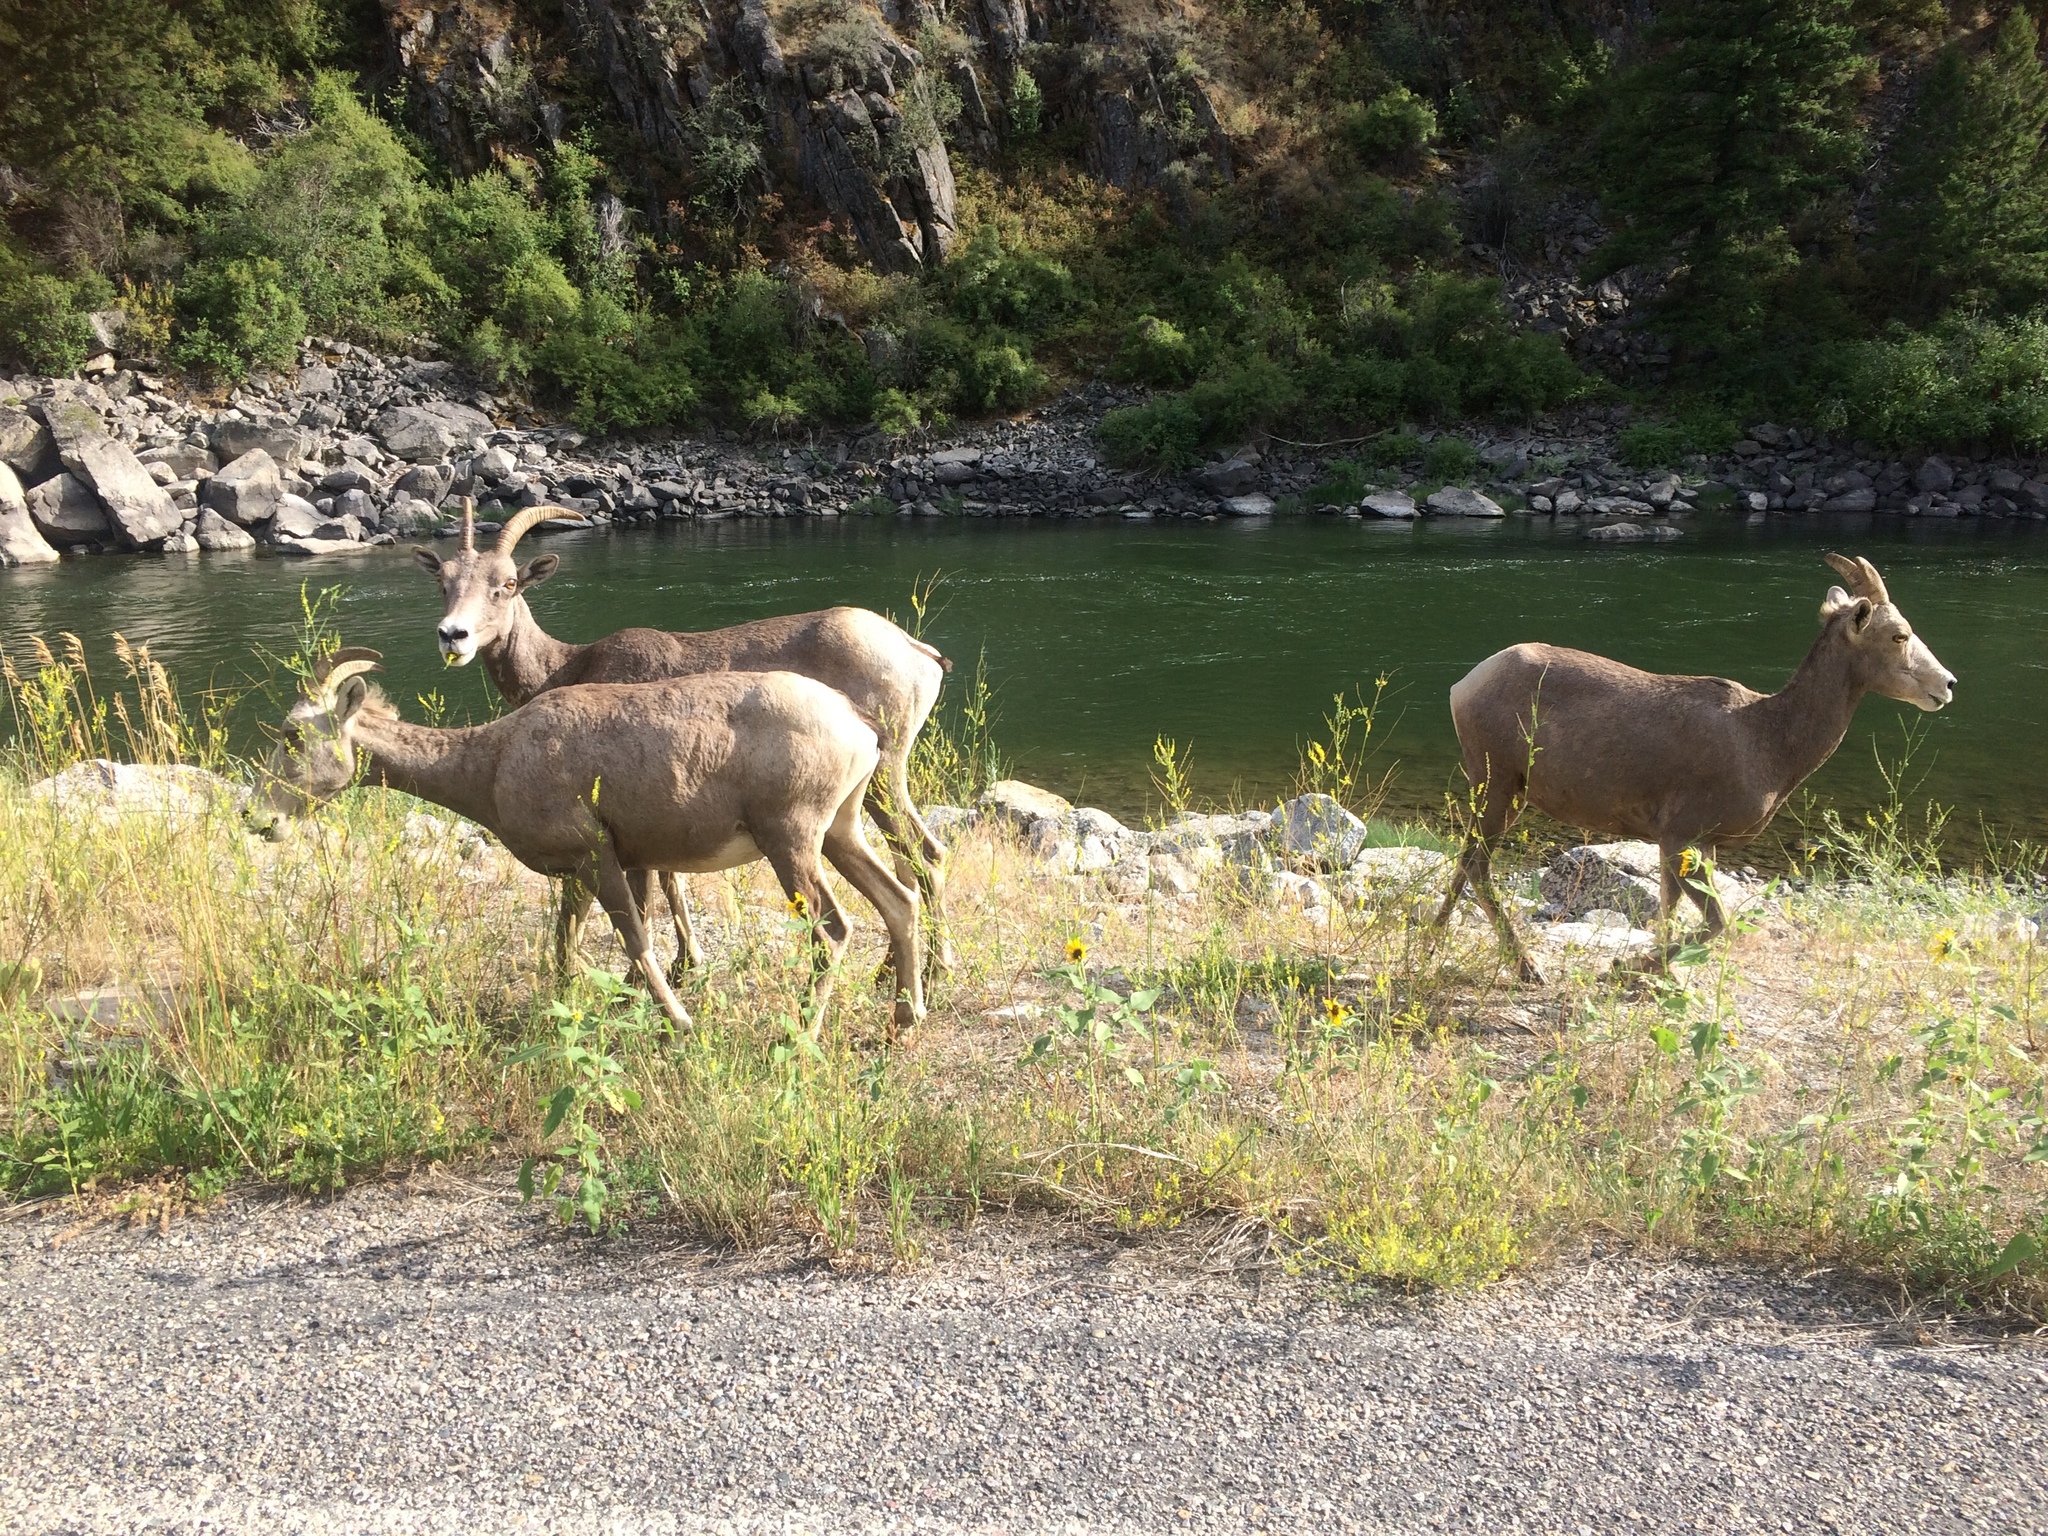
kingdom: Animalia
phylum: Chordata
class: Mammalia
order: Artiodactyla
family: Bovidae
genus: Ovis
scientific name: Ovis canadensis
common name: Bighorn sheep
